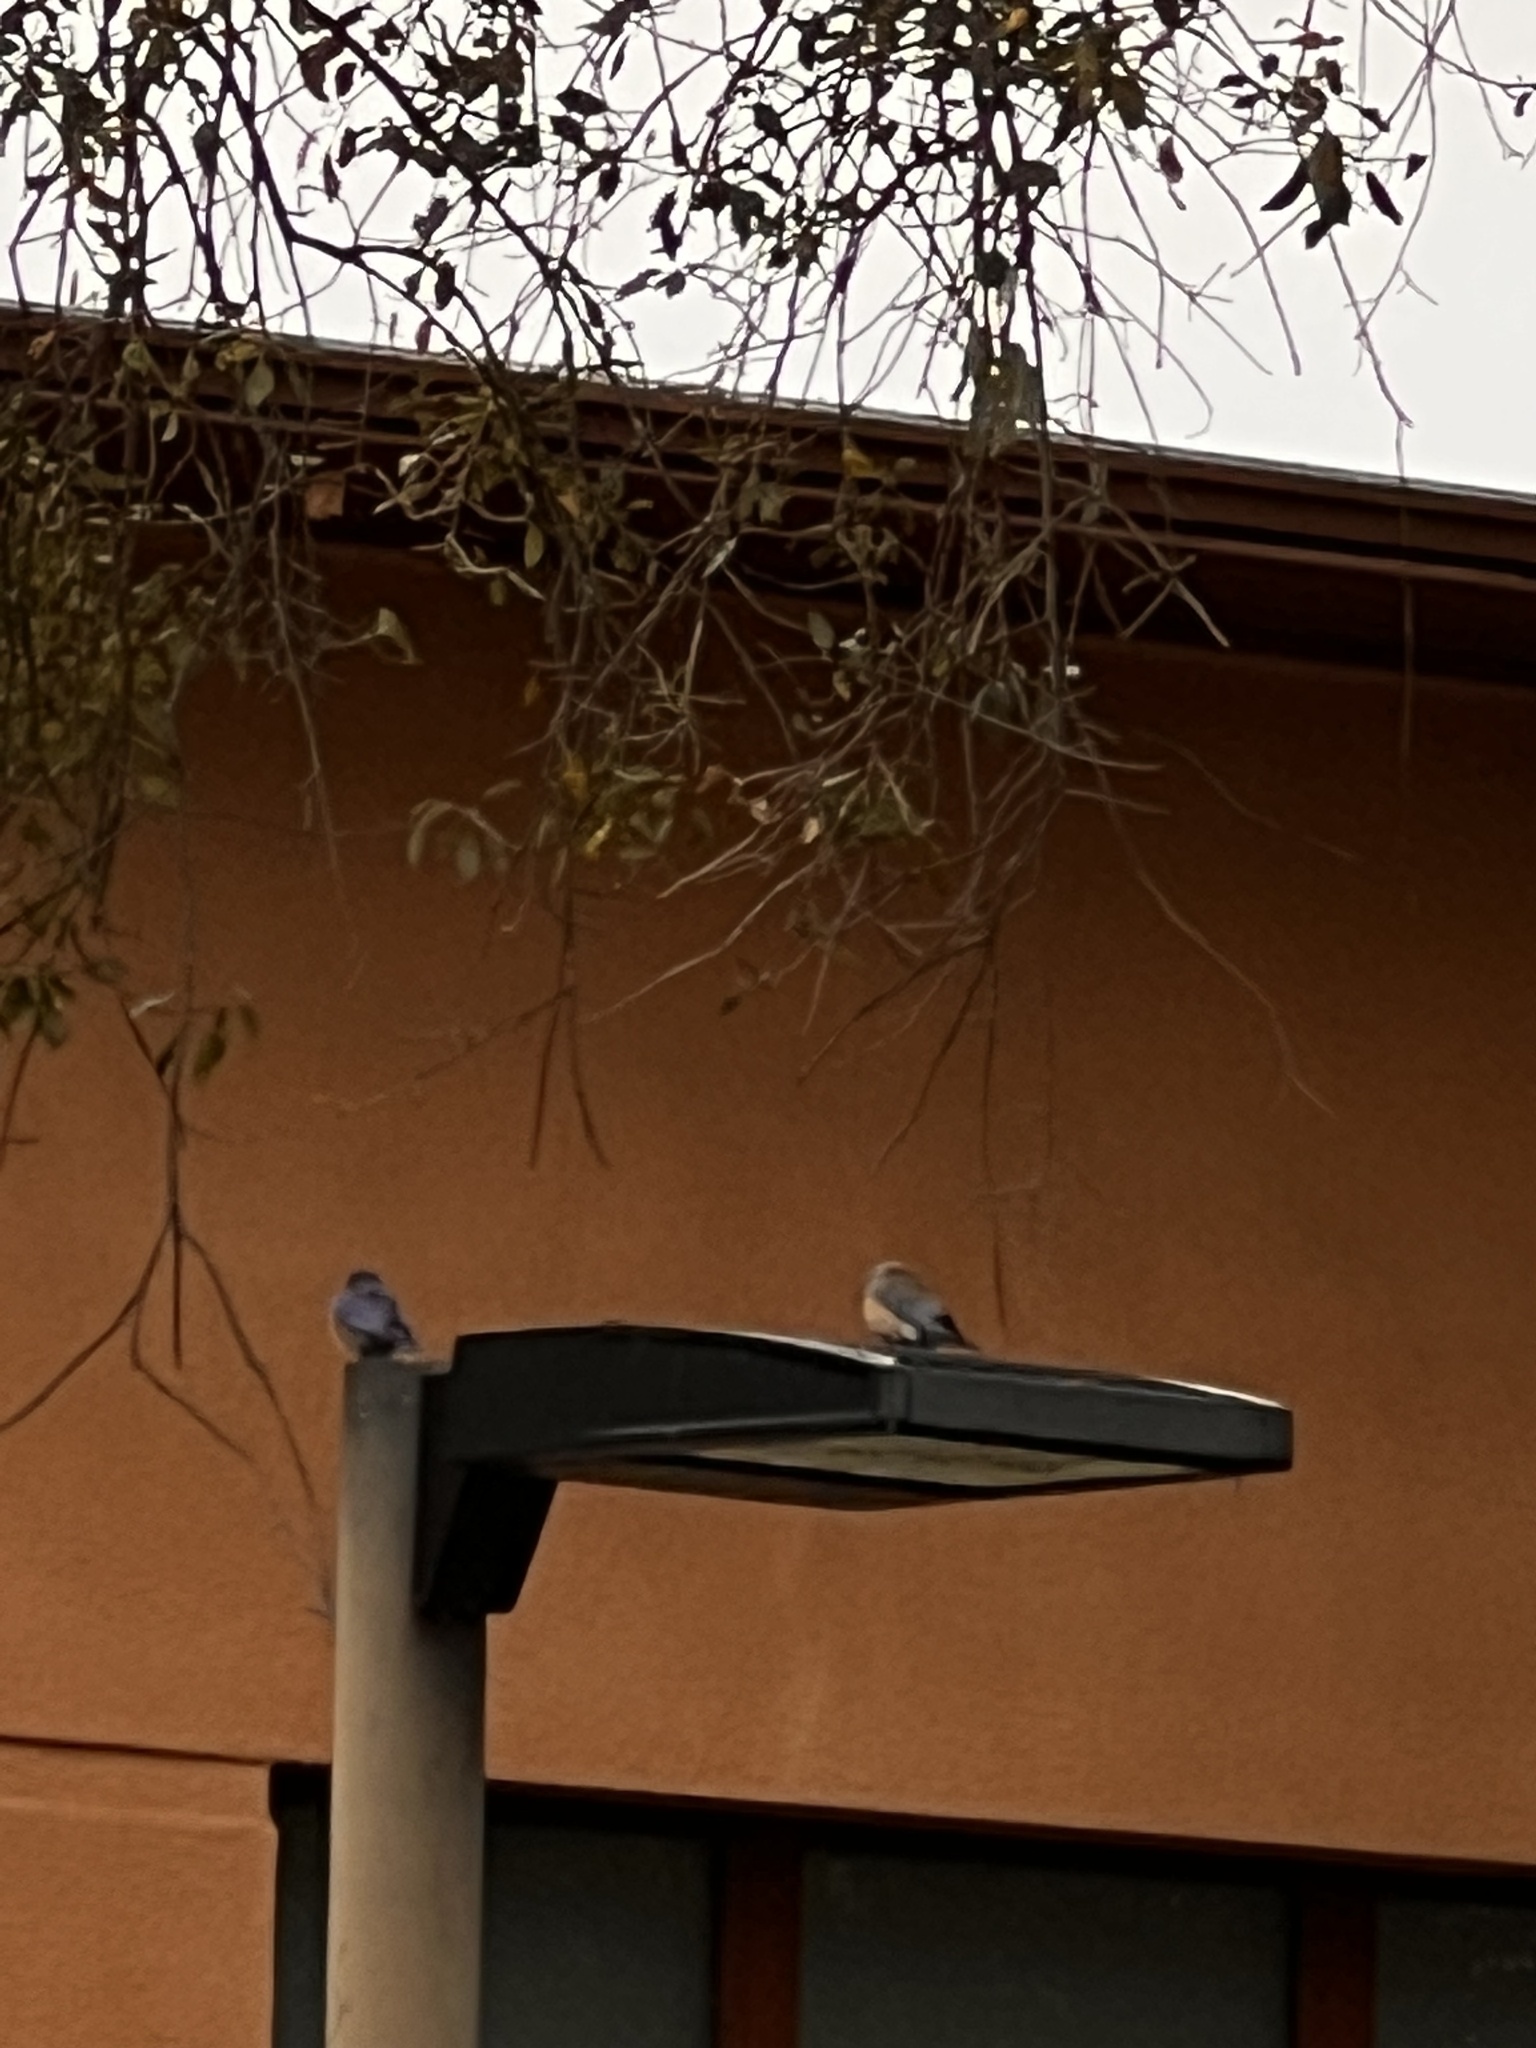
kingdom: Animalia
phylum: Chordata
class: Aves
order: Passeriformes
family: Turdidae
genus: Sialia
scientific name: Sialia mexicana
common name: Western bluebird
